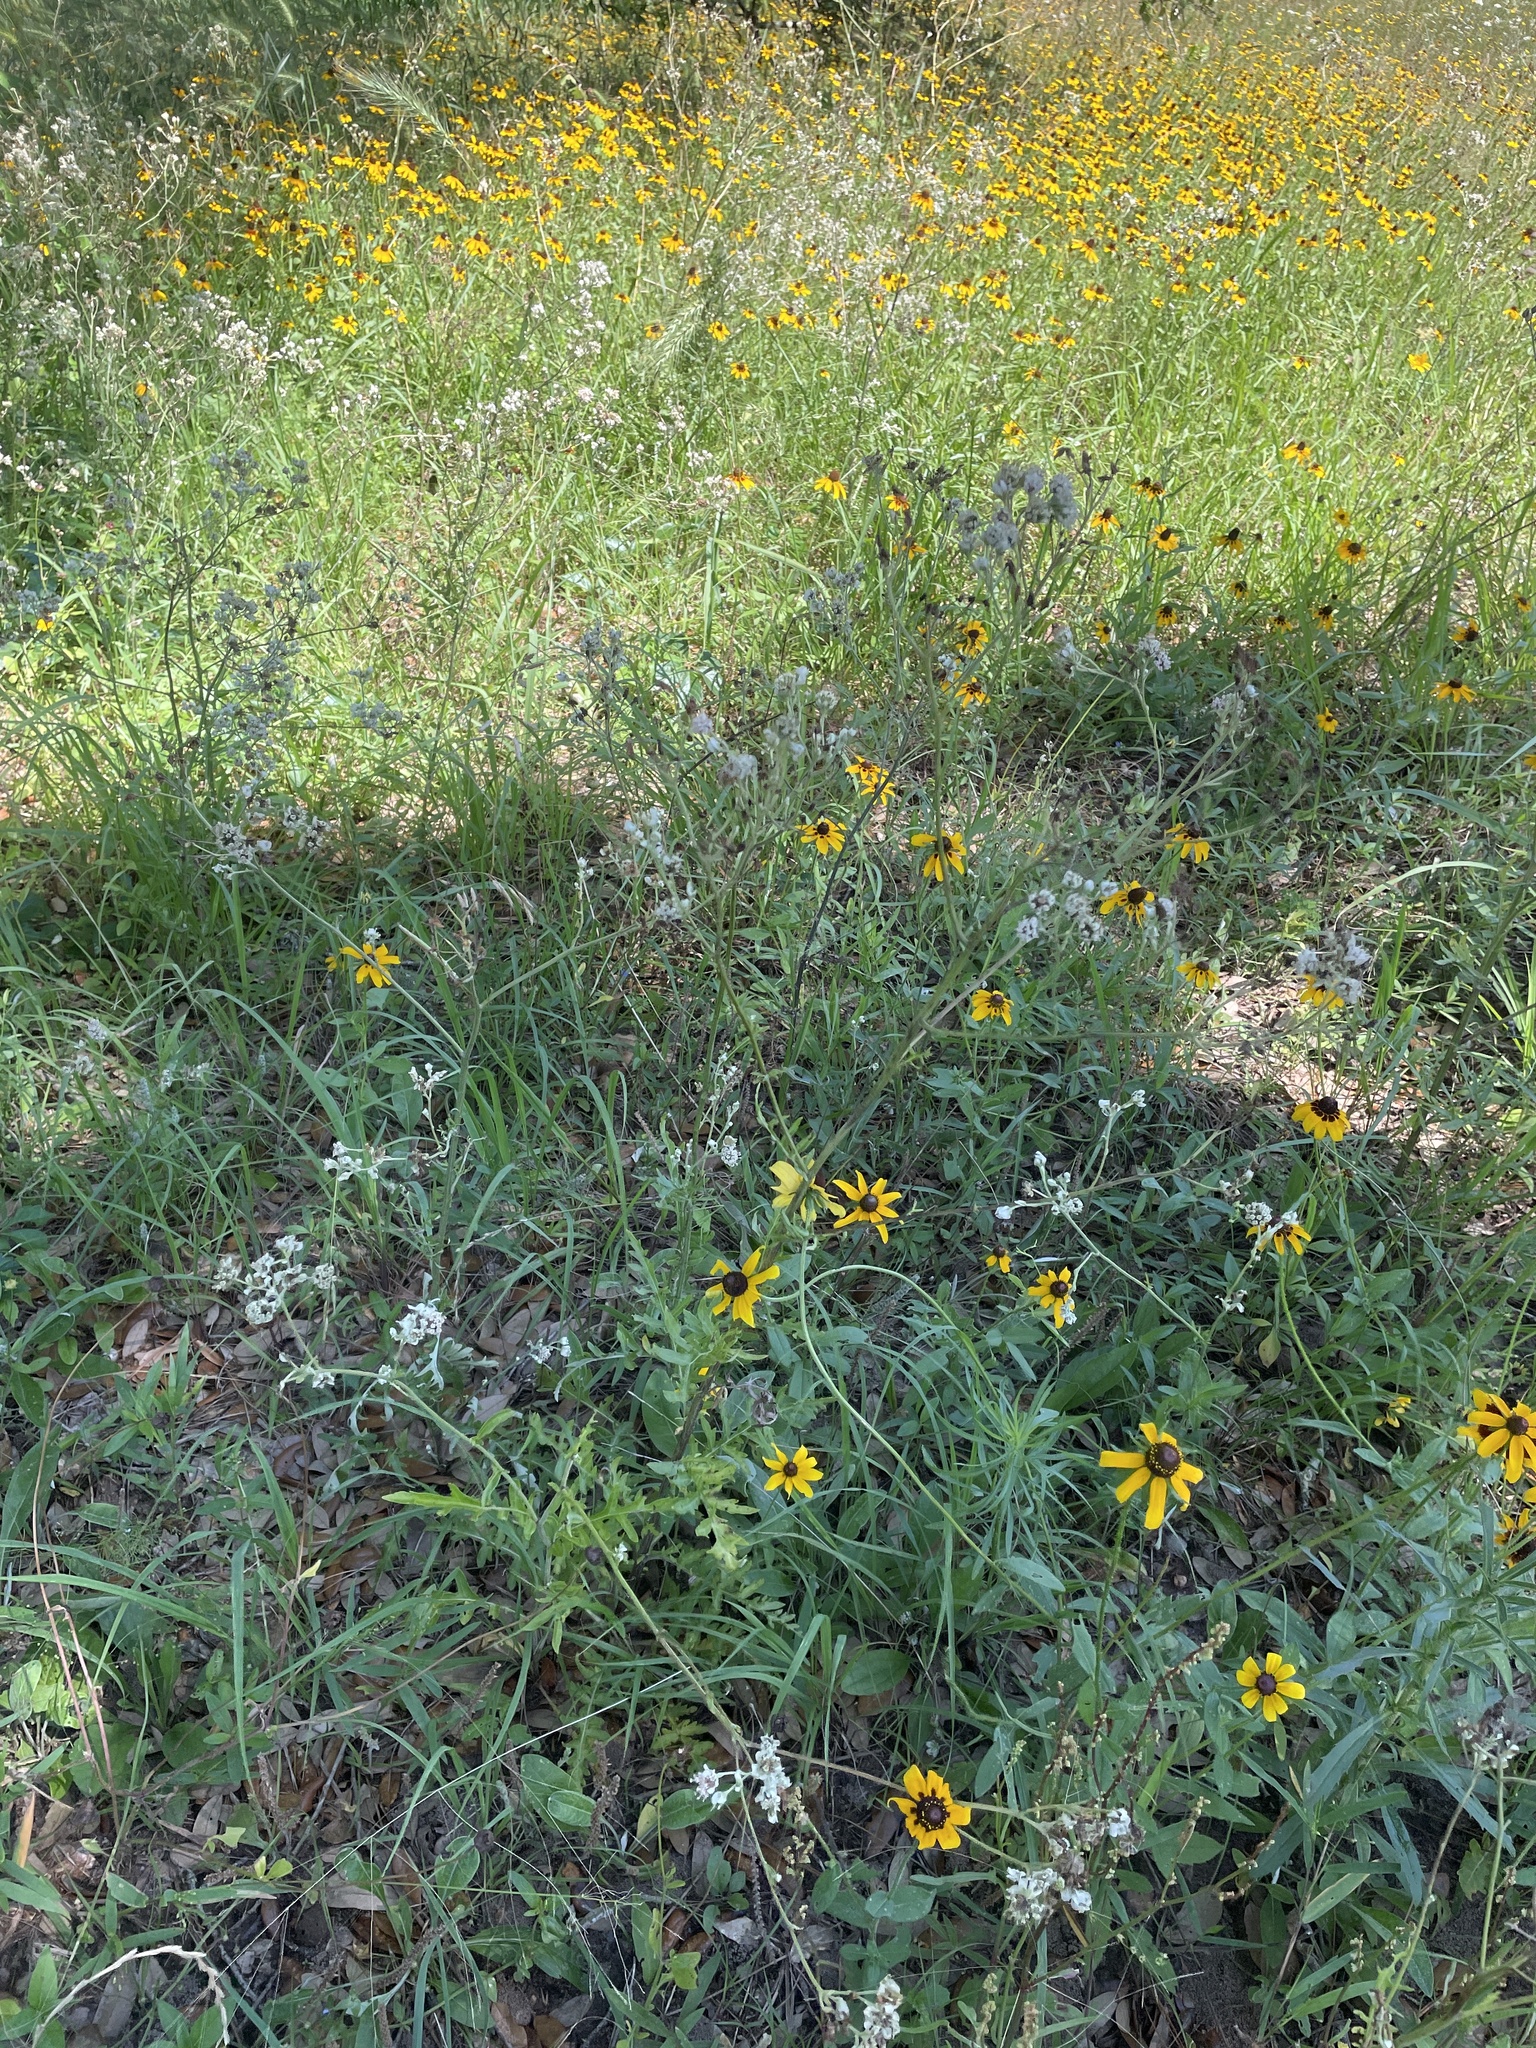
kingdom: Plantae
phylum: Tracheophyta
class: Magnoliopsida
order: Asterales
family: Asteraceae
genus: Hymenopappus
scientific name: Hymenopappus artemisiifolius
